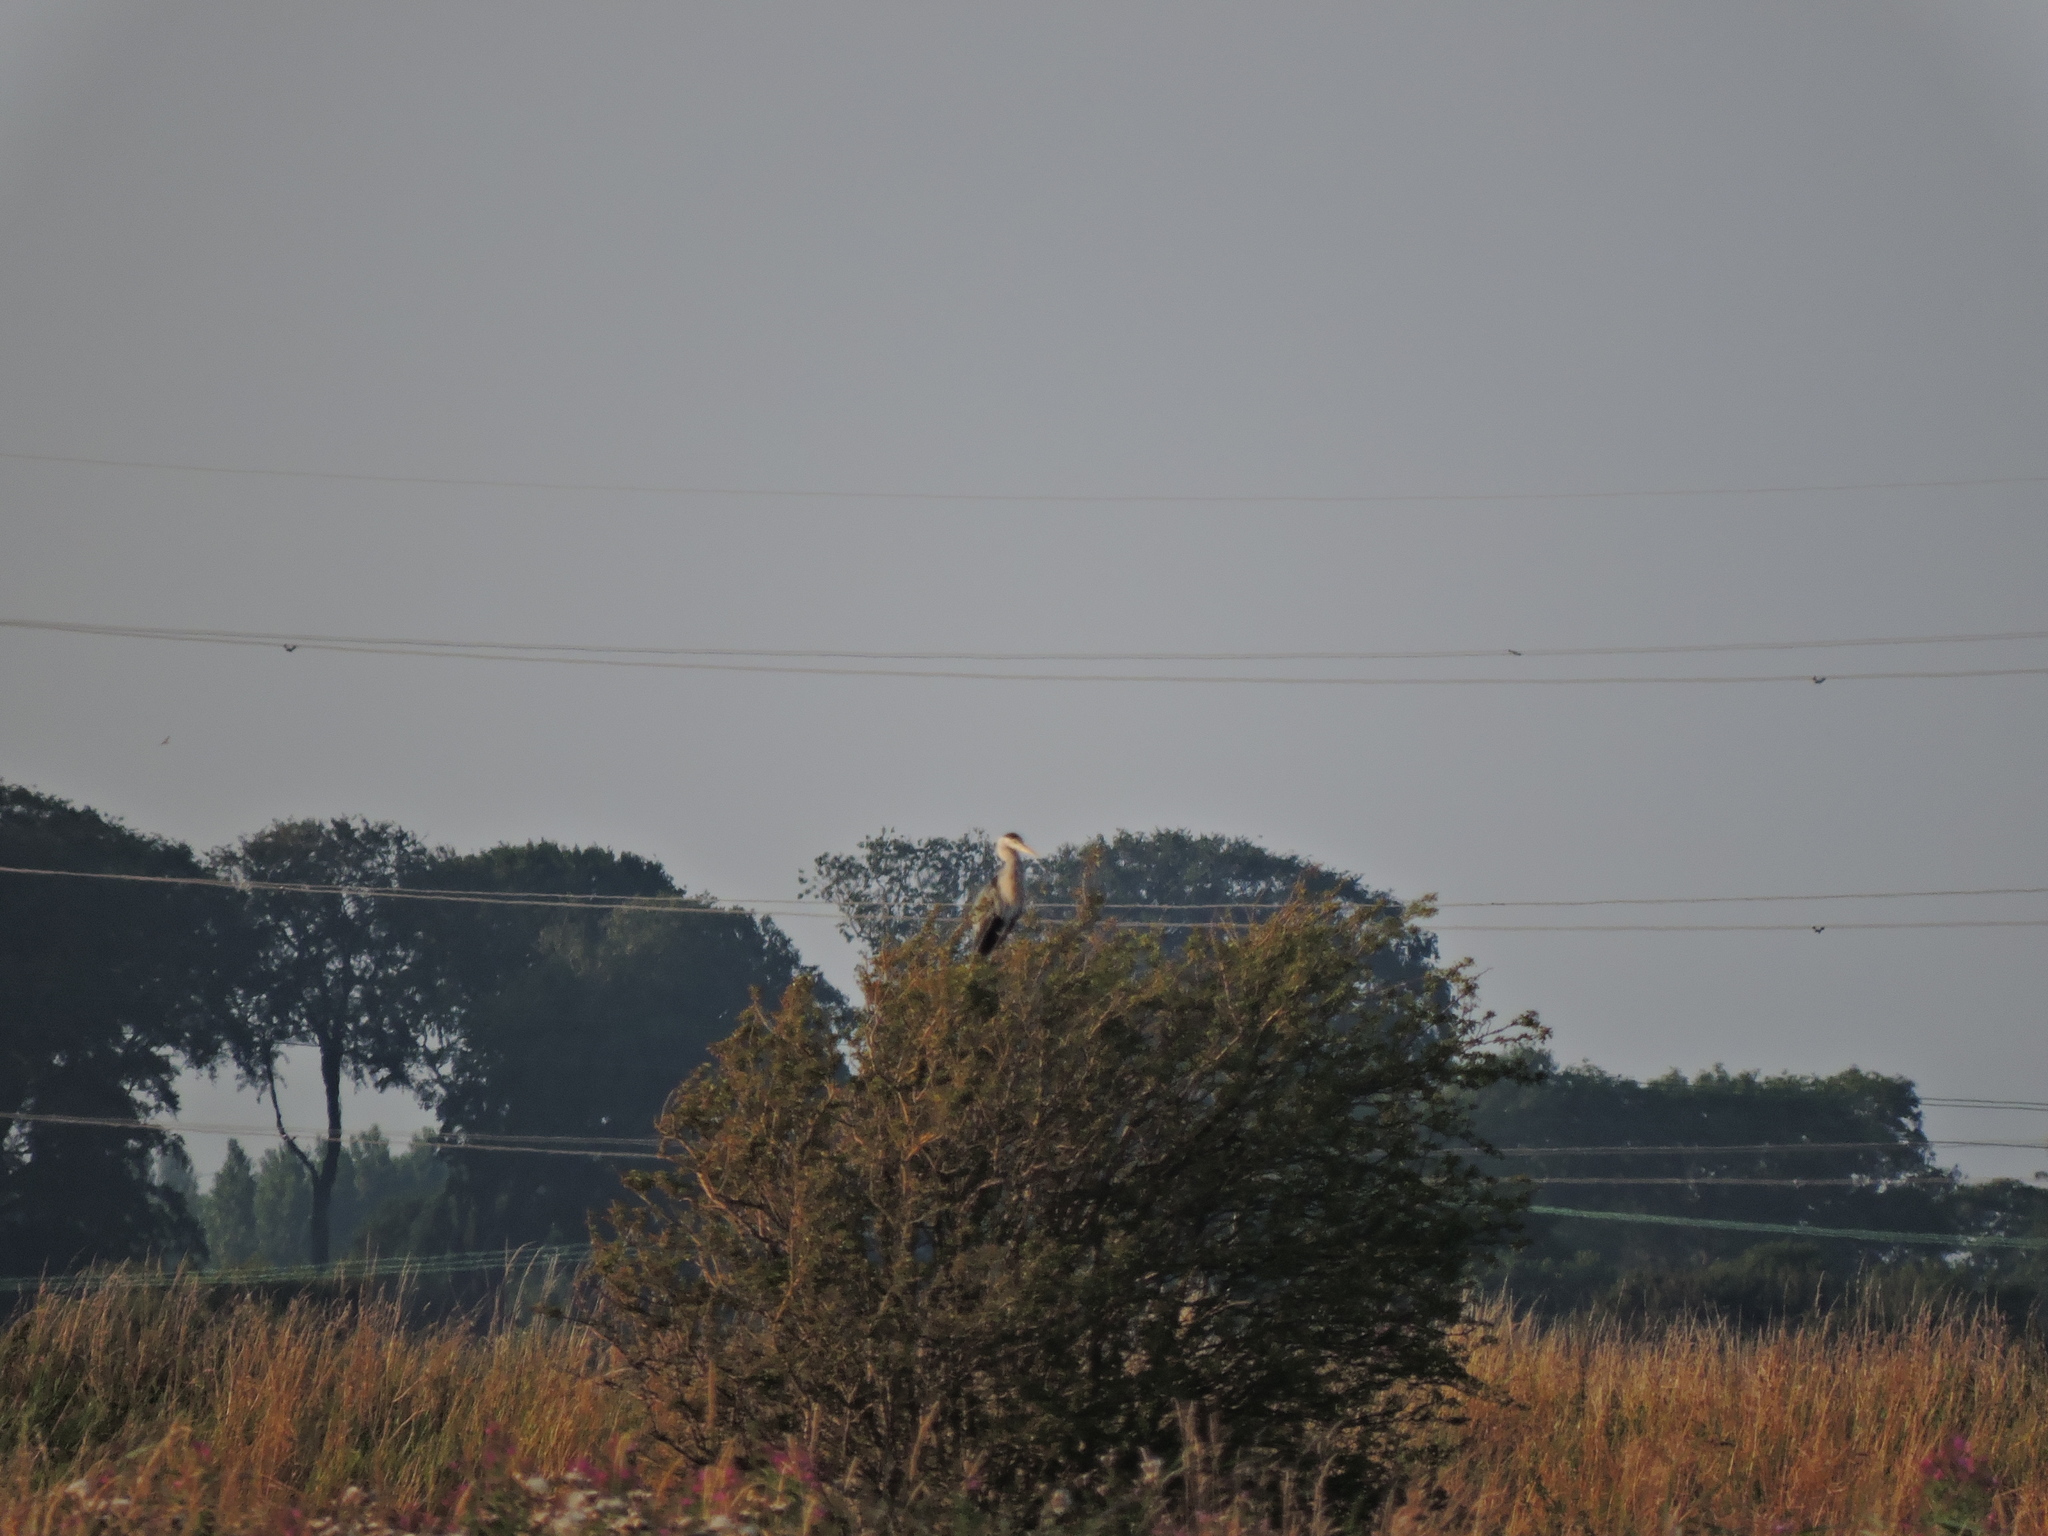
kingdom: Animalia
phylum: Chordata
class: Aves
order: Pelecaniformes
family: Ardeidae
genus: Ardea
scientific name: Ardea cinerea
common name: Grey heron
